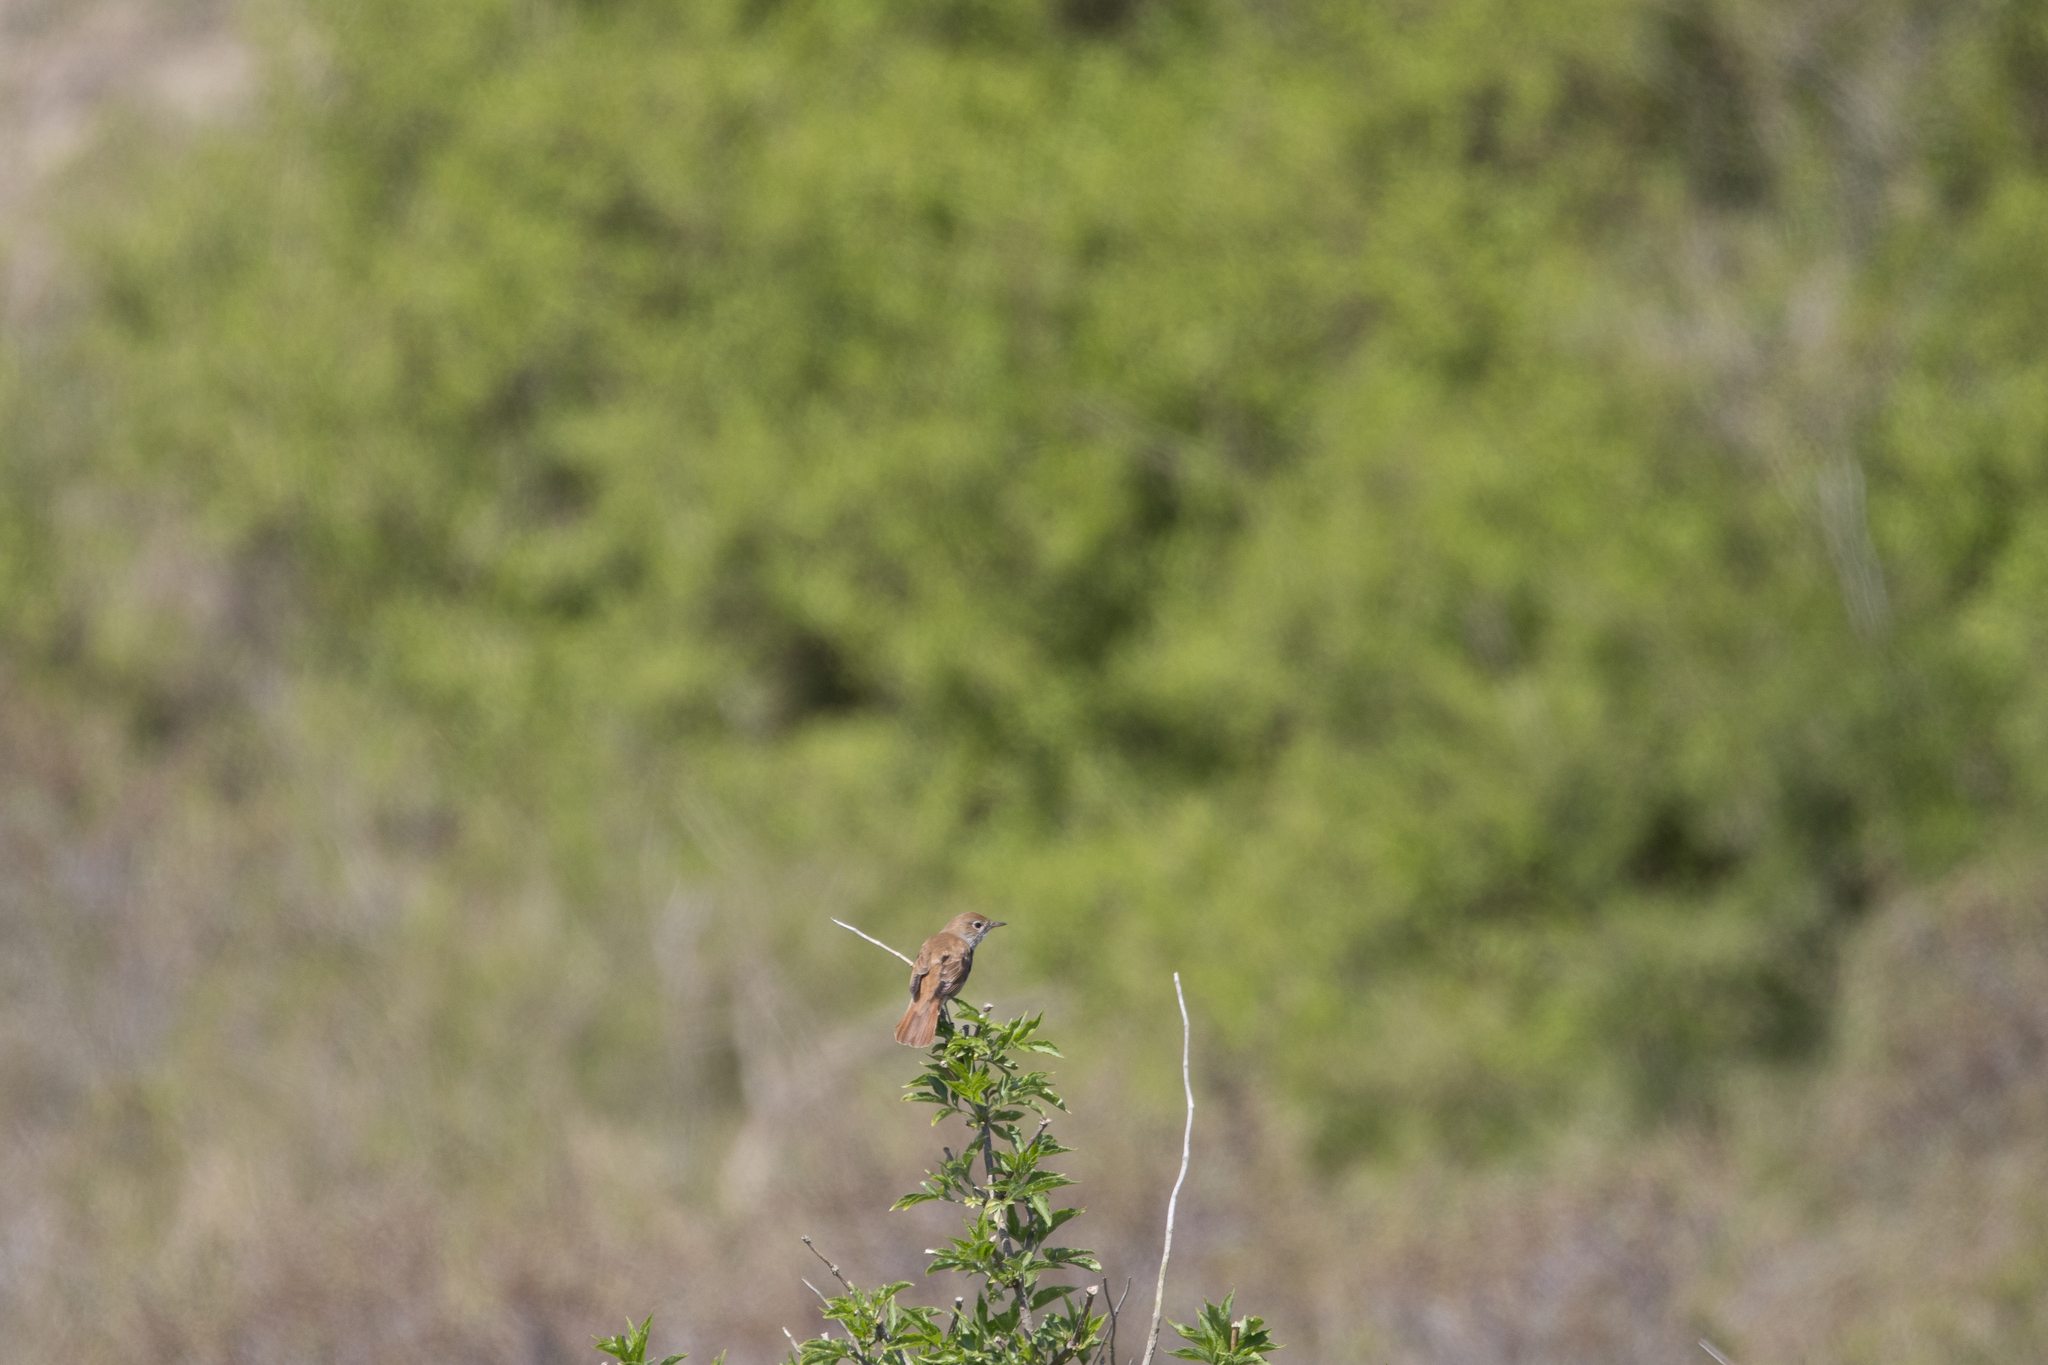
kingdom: Animalia
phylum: Chordata
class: Aves
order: Passeriformes
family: Muscicapidae
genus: Luscinia
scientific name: Luscinia megarhynchos
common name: Common nightingale
